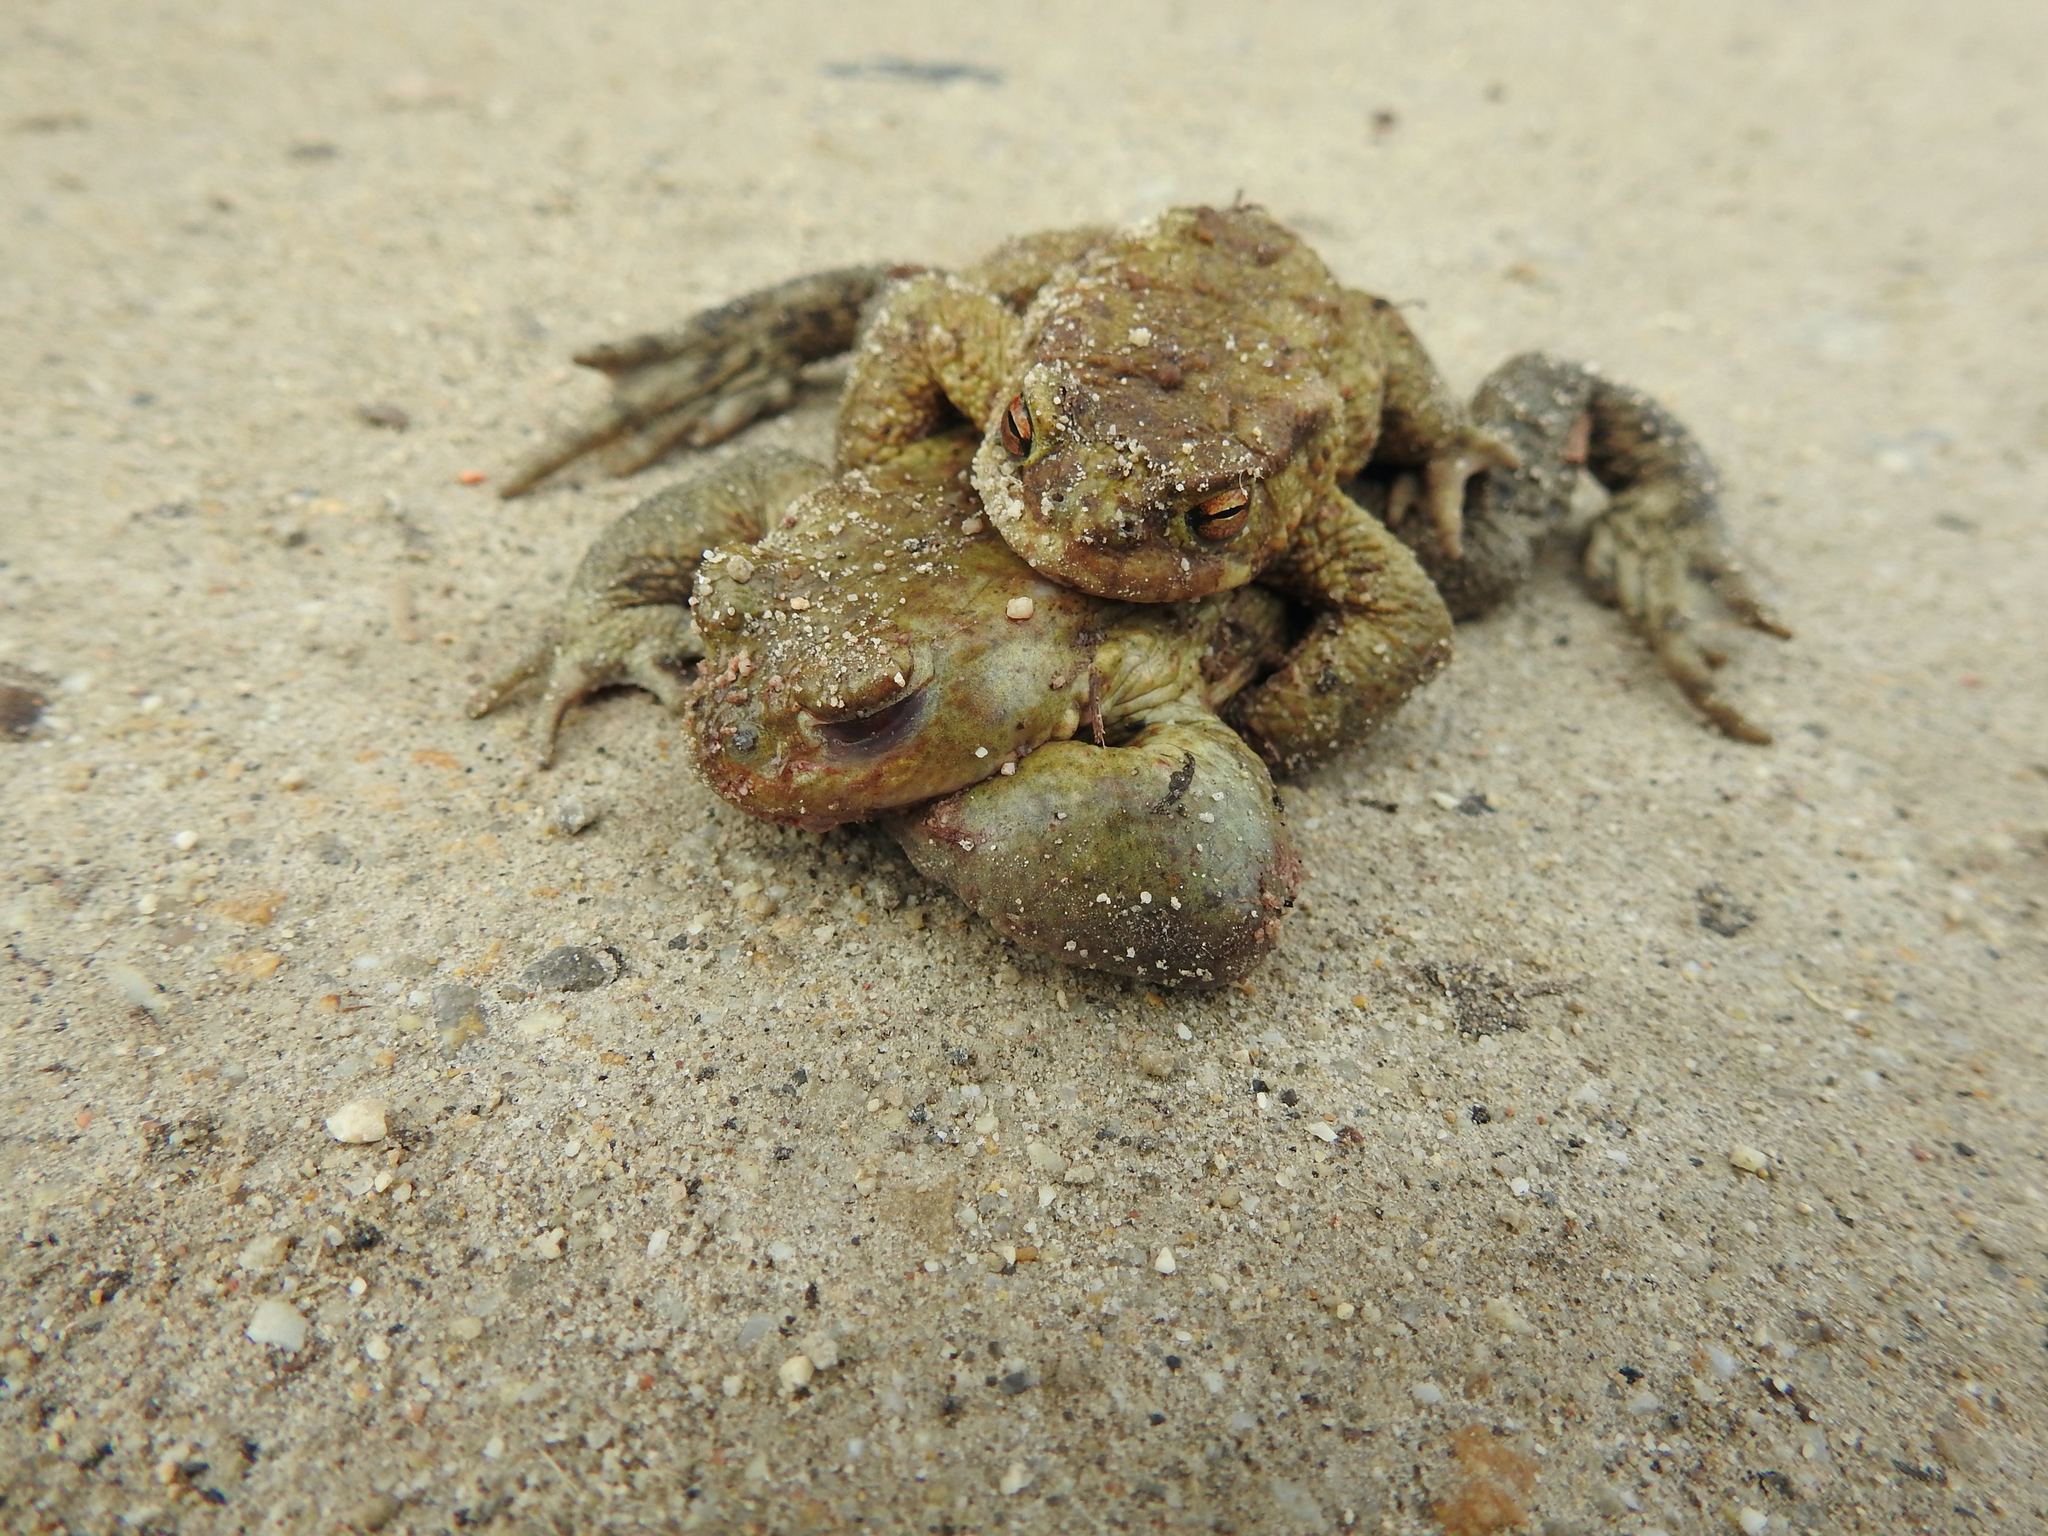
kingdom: Animalia
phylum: Chordata
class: Amphibia
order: Anura
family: Bufonidae
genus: Bufo
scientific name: Bufo bufo
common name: Common toad
